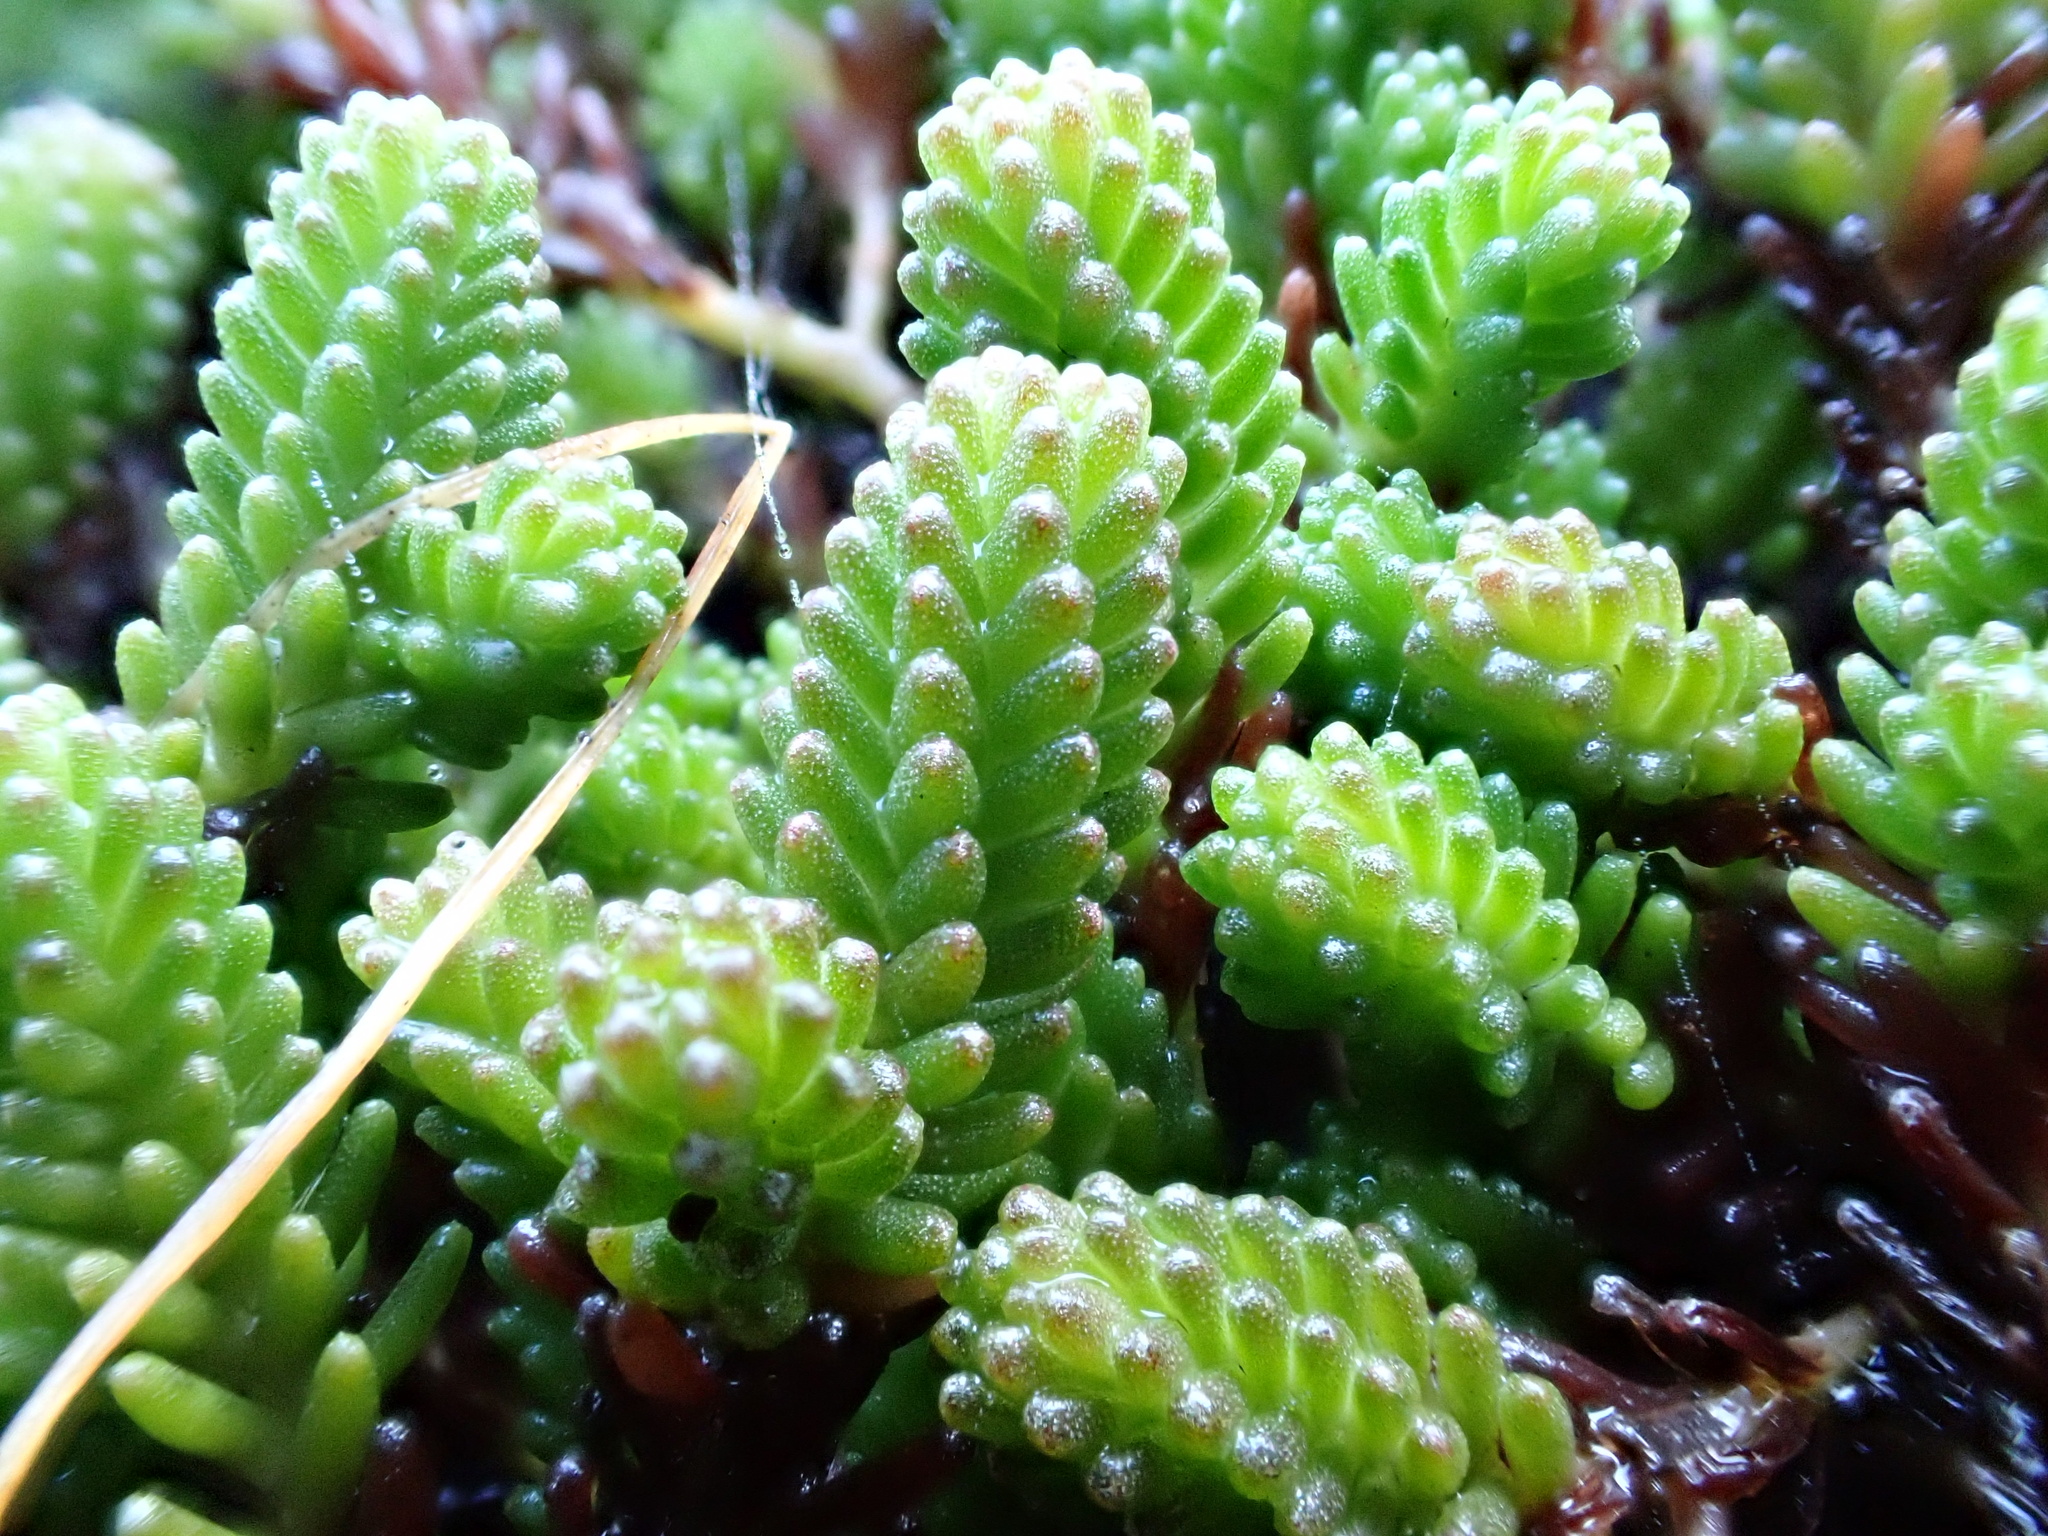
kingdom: Plantae
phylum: Tracheophyta
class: Magnoliopsida
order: Saxifragales
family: Crassulaceae
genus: Sedum
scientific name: Sedum sexangulare
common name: Tasteless stonecrop
